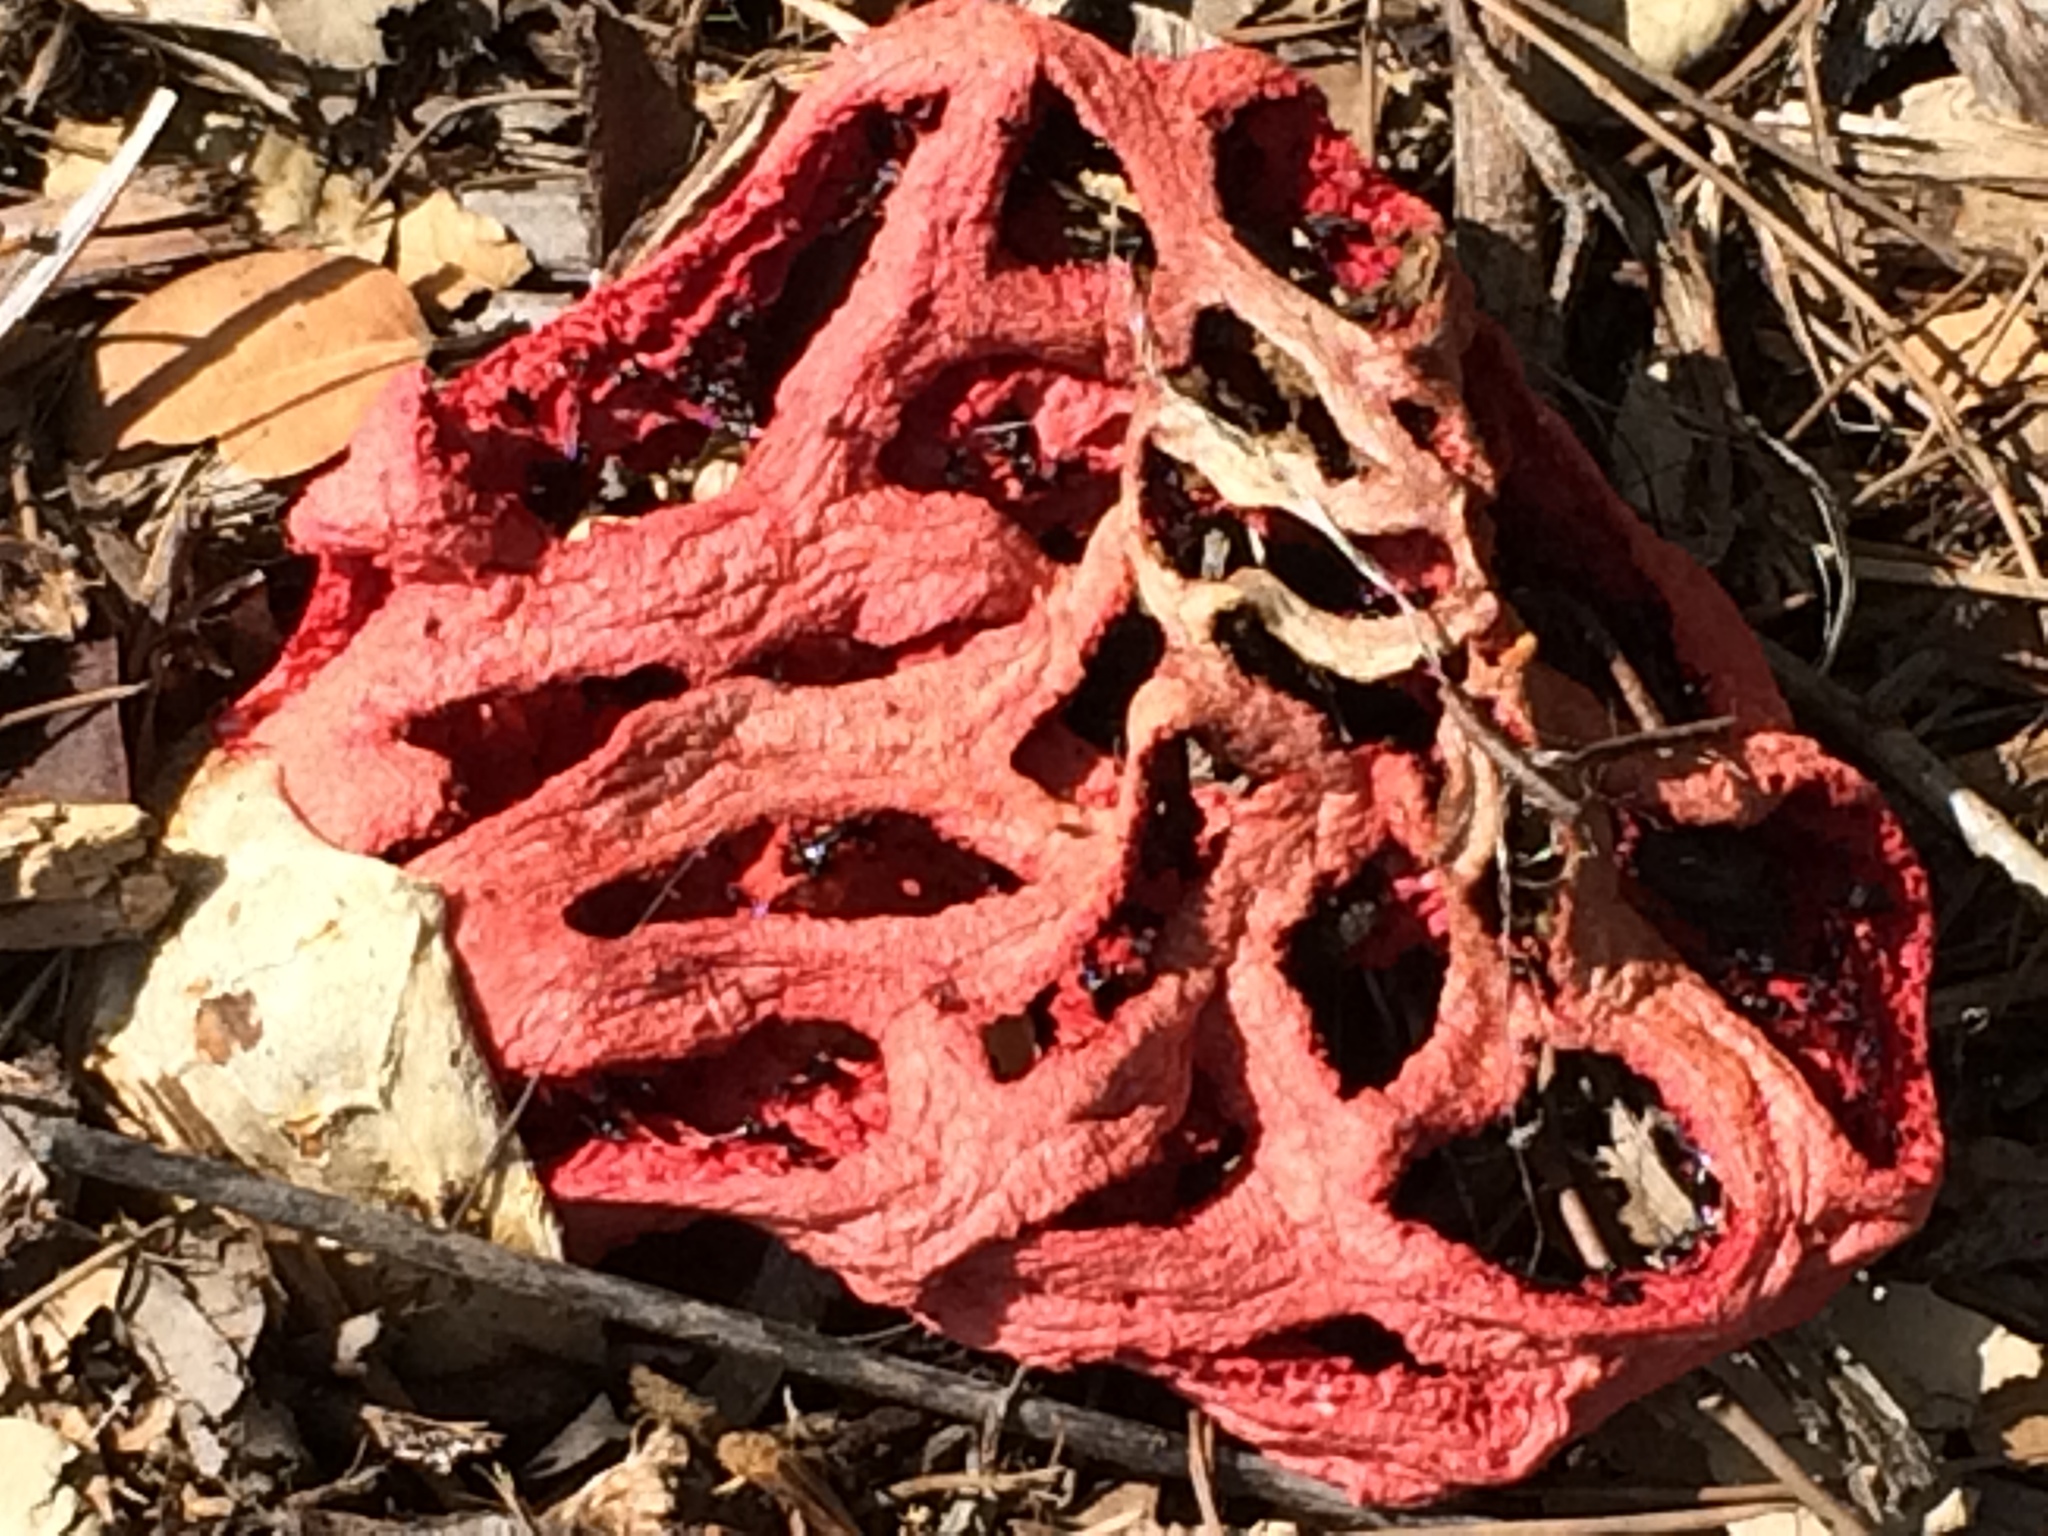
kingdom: Fungi
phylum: Basidiomycota
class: Agaricomycetes
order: Phallales
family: Phallaceae
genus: Clathrus
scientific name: Clathrus ruber
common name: Red cage
